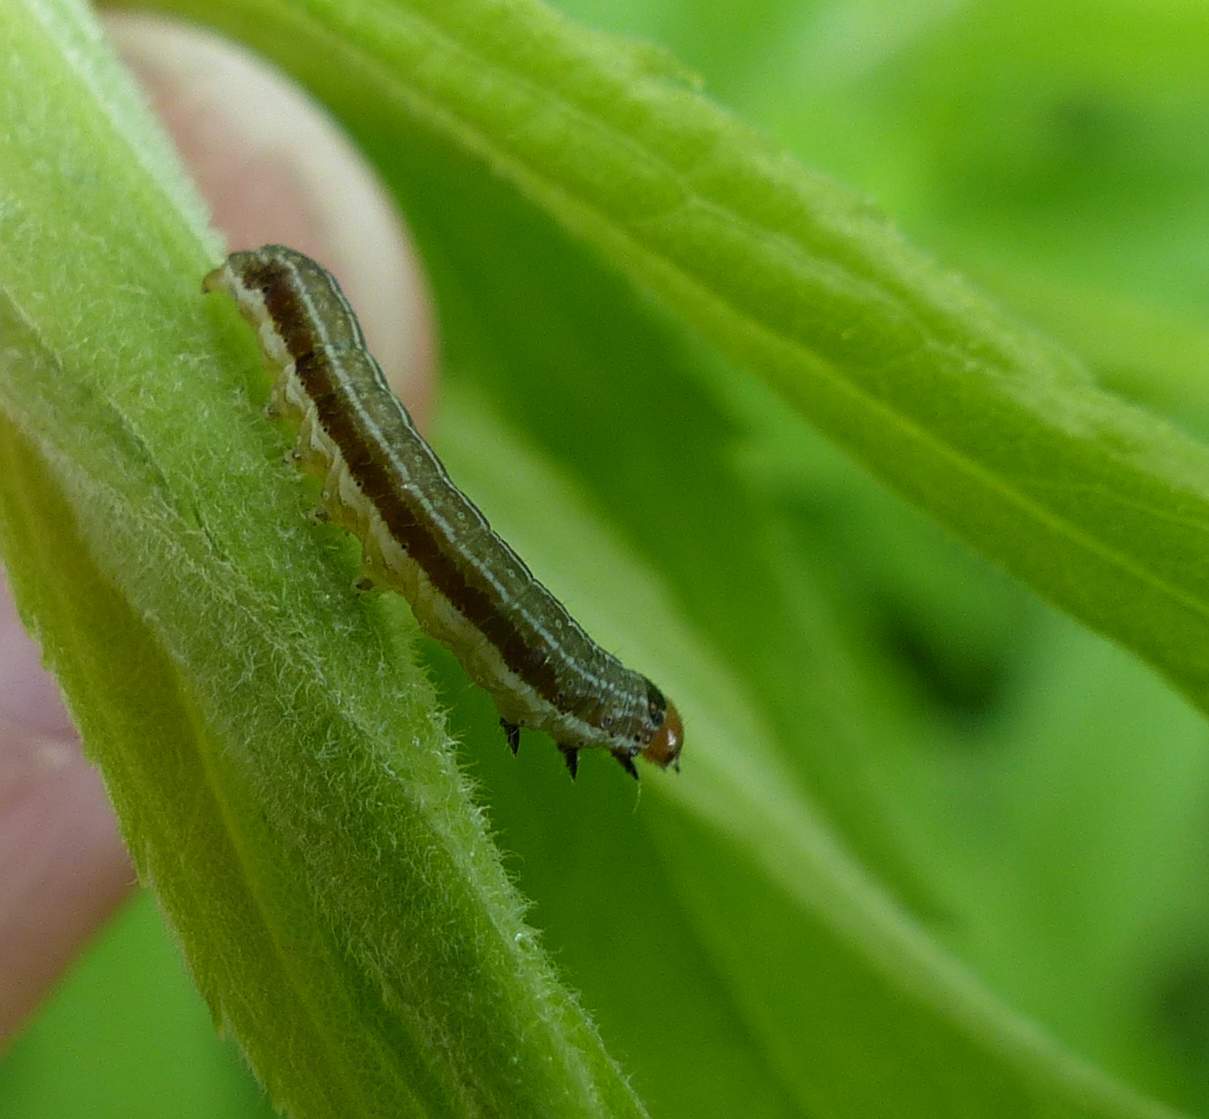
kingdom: Animalia
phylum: Arthropoda
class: Insecta
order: Lepidoptera
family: Noctuidae
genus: Eupsilia
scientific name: Eupsilia devia
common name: Lost sallow
